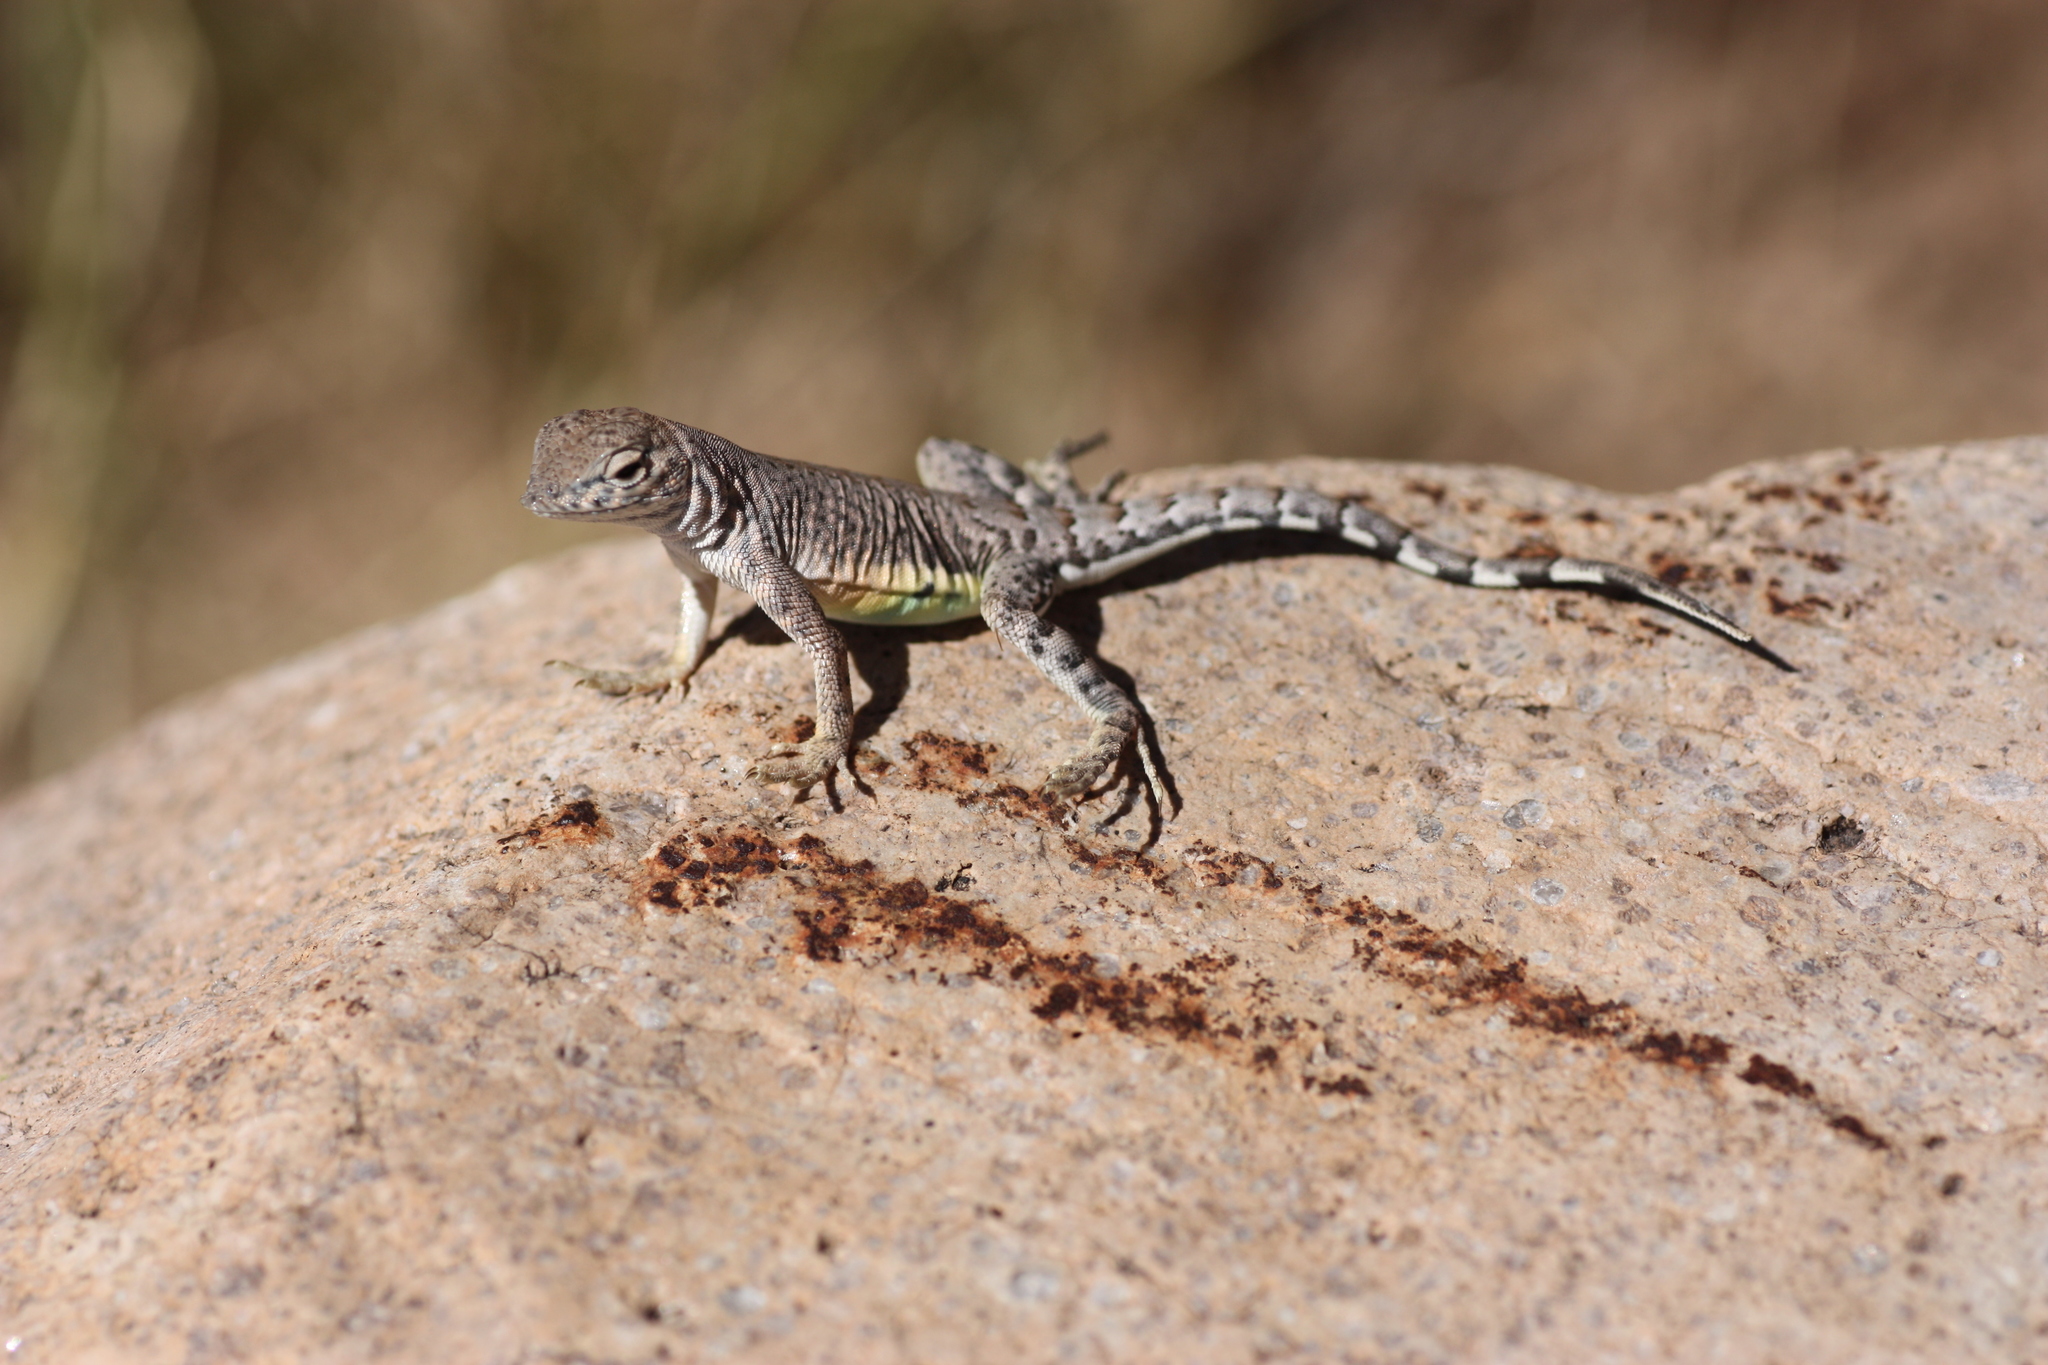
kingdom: Animalia
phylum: Chordata
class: Squamata
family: Phrynosomatidae
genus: Cophosaurus
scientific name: Cophosaurus texanus
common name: Greater earless lizard
